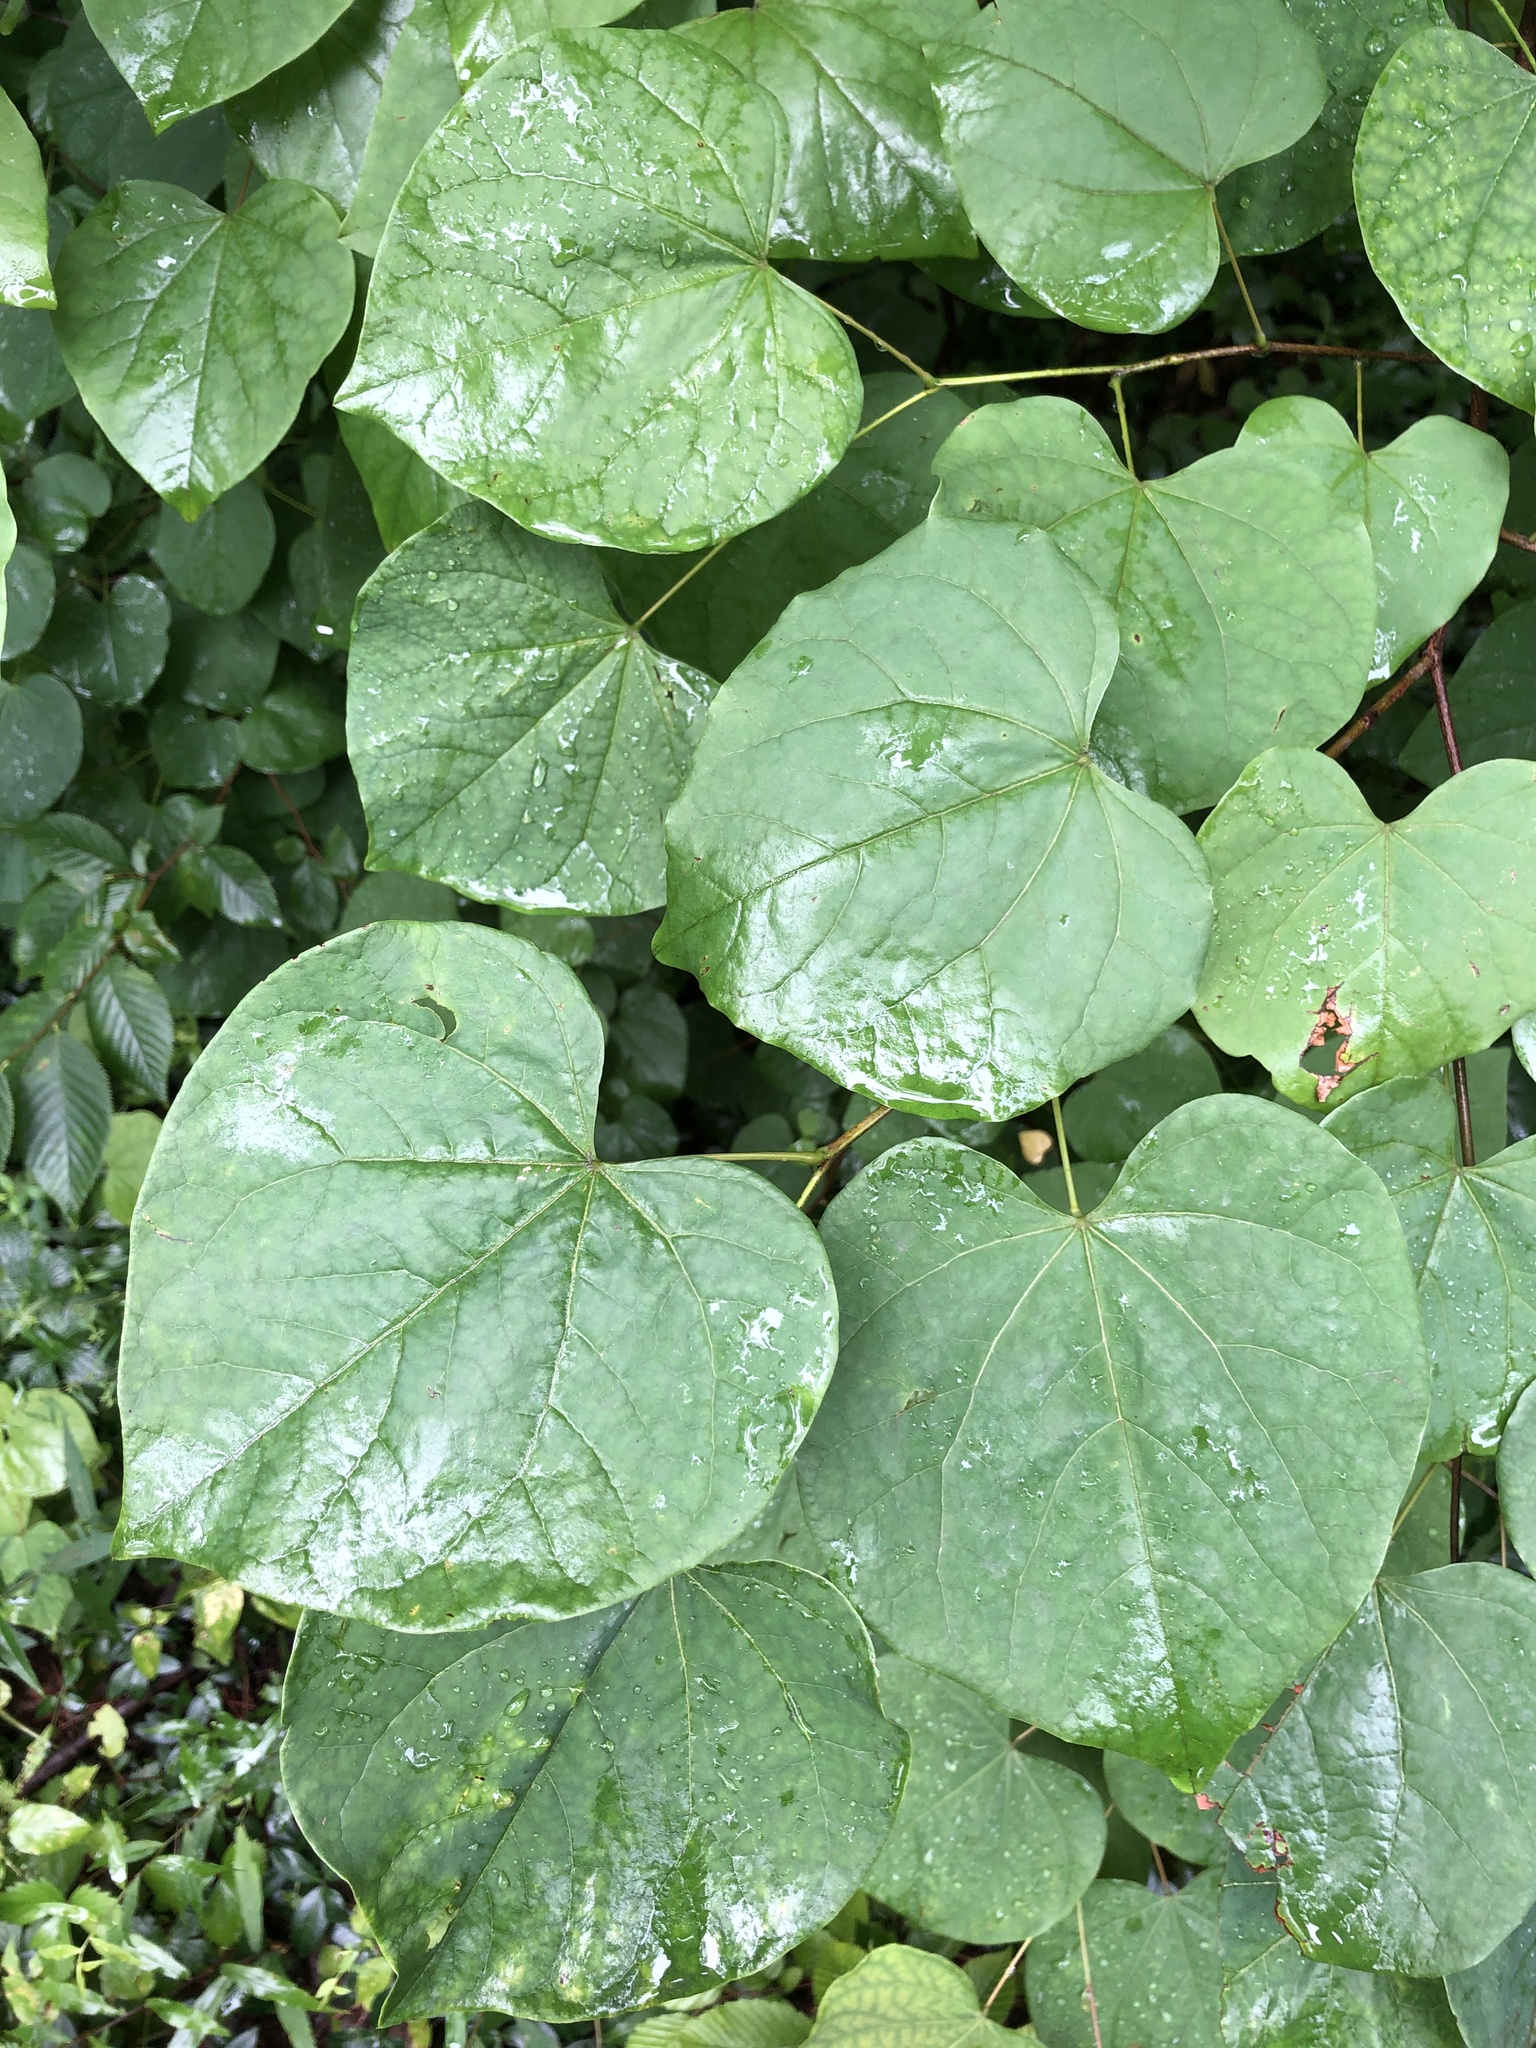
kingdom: Plantae
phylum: Tracheophyta
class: Magnoliopsida
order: Fabales
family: Fabaceae
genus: Cercis
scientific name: Cercis canadensis
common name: Eastern redbud
